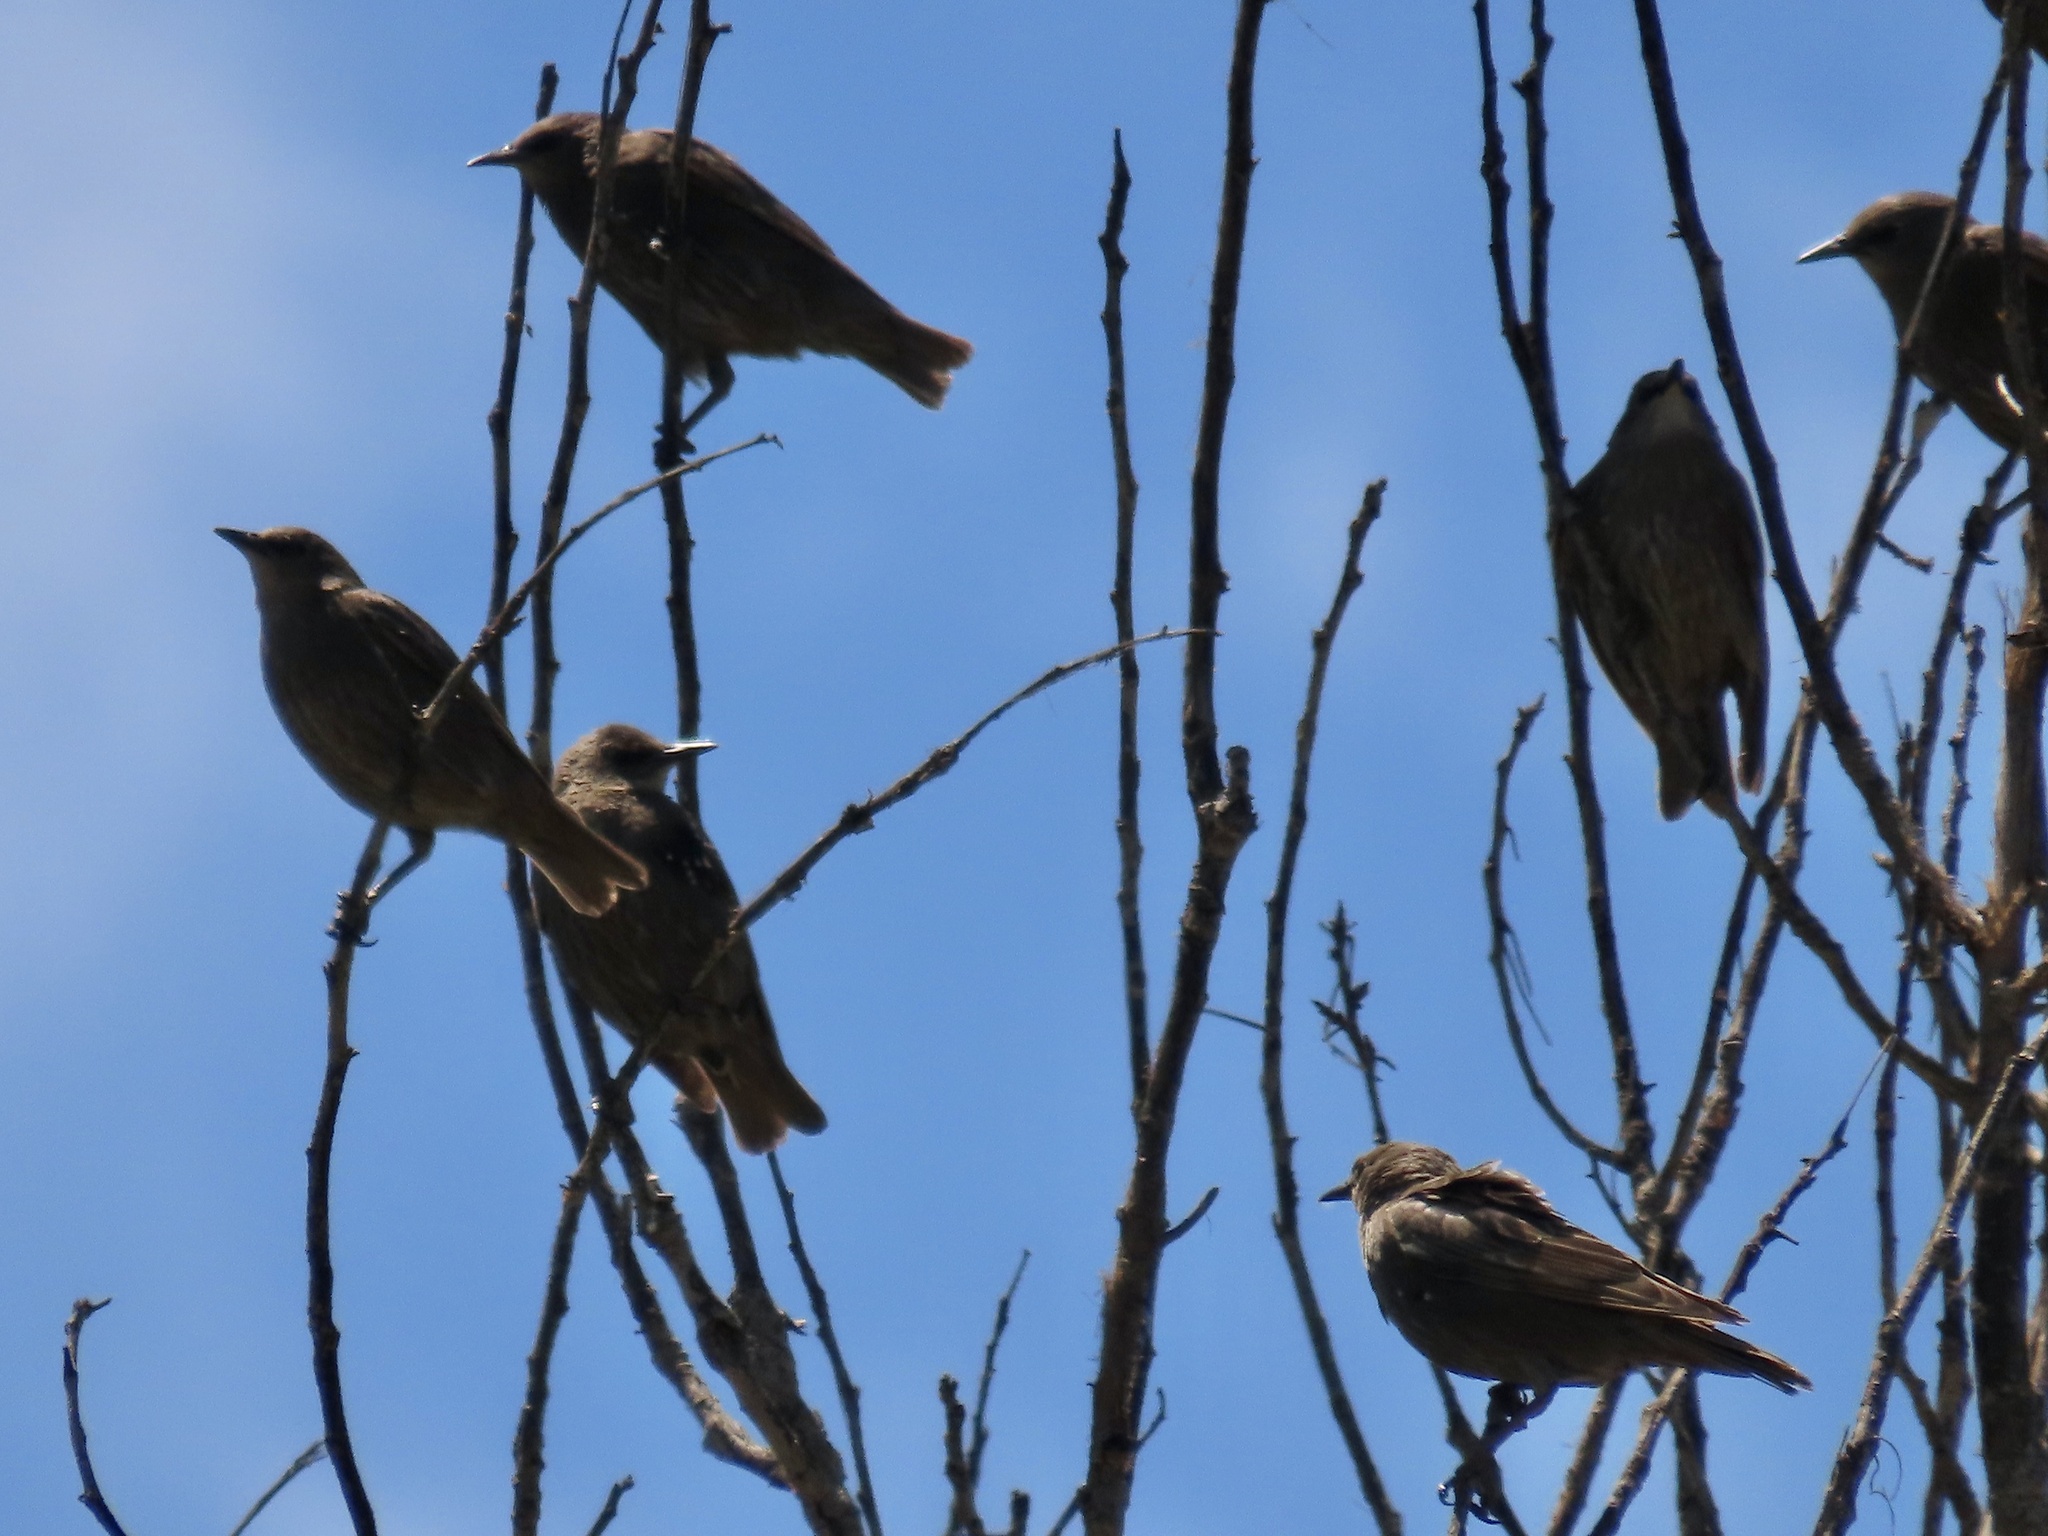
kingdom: Animalia
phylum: Chordata
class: Aves
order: Passeriformes
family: Sturnidae
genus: Sturnus
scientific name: Sturnus vulgaris
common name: Common starling
